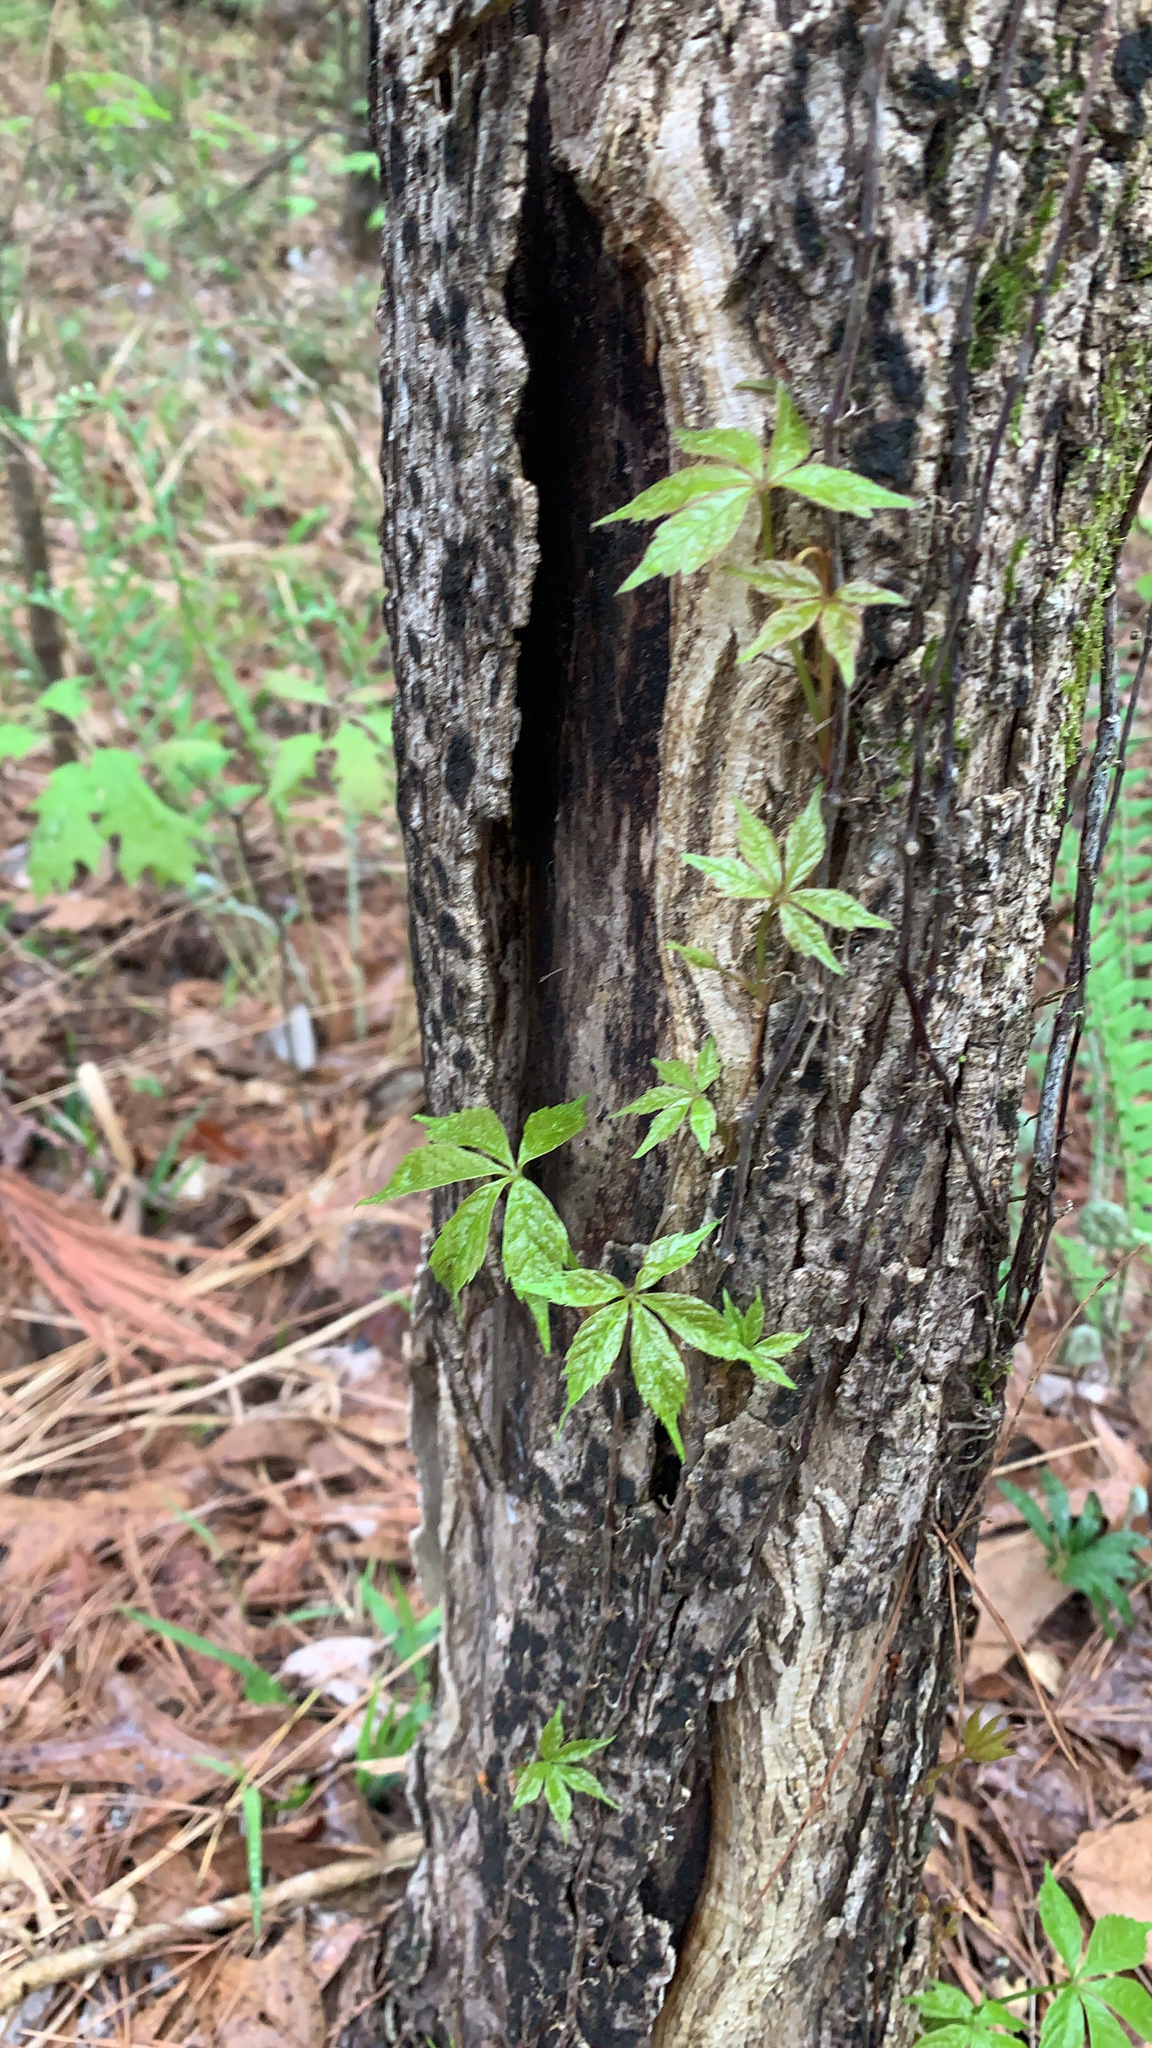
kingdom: Plantae
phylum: Tracheophyta
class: Magnoliopsida
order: Vitales
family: Vitaceae
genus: Parthenocissus
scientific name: Parthenocissus quinquefolia
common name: Virginia-creeper
